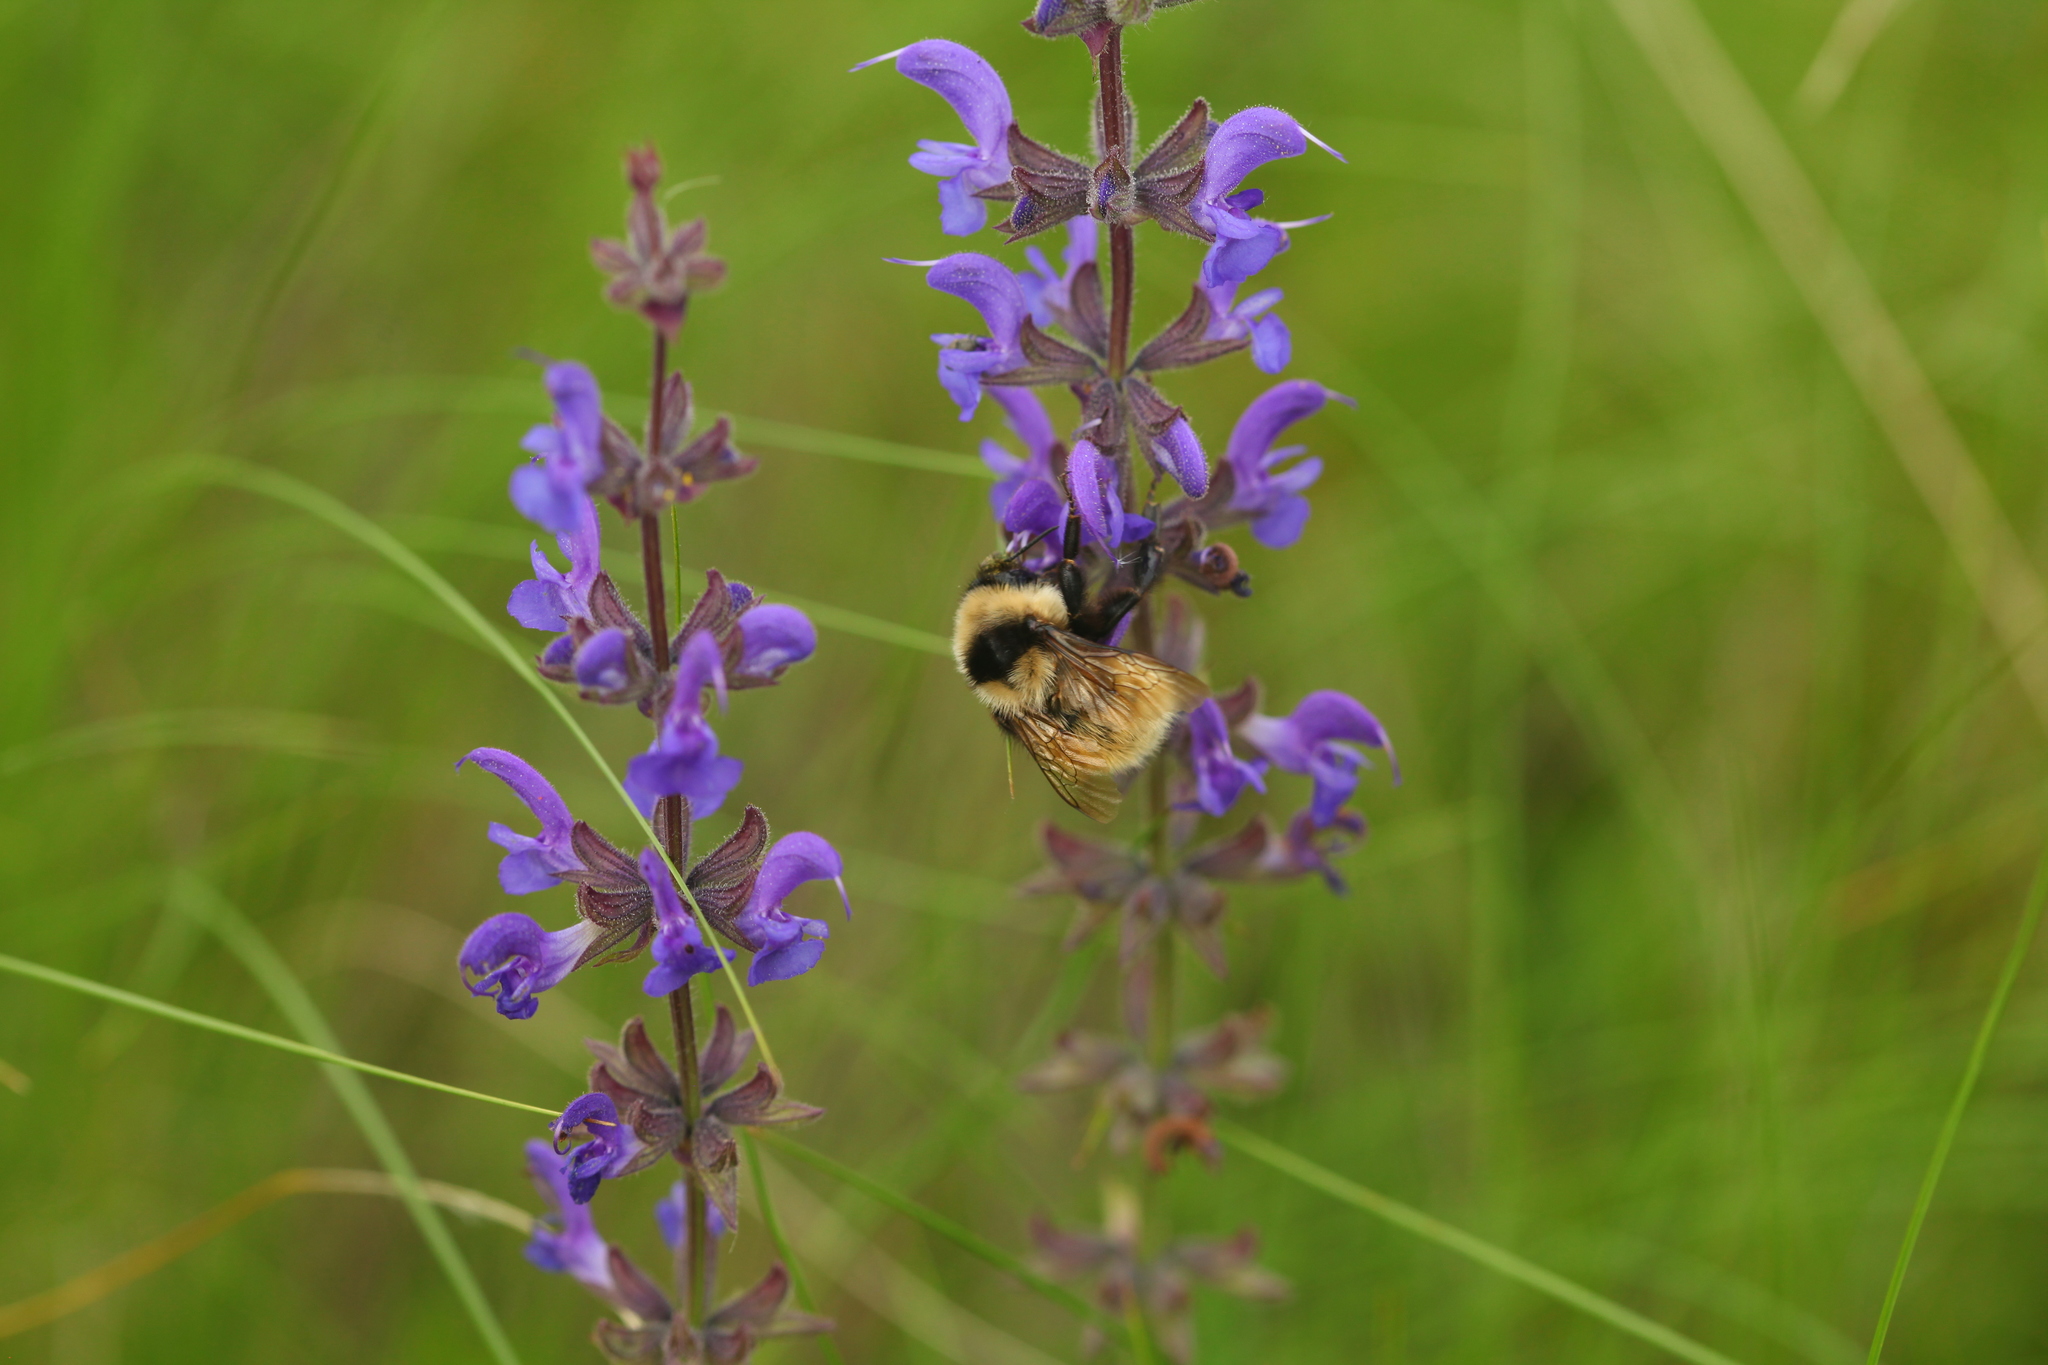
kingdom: Animalia
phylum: Arthropoda
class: Insecta
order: Hymenoptera
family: Apidae
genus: Bombus
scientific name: Bombus armeniacus
